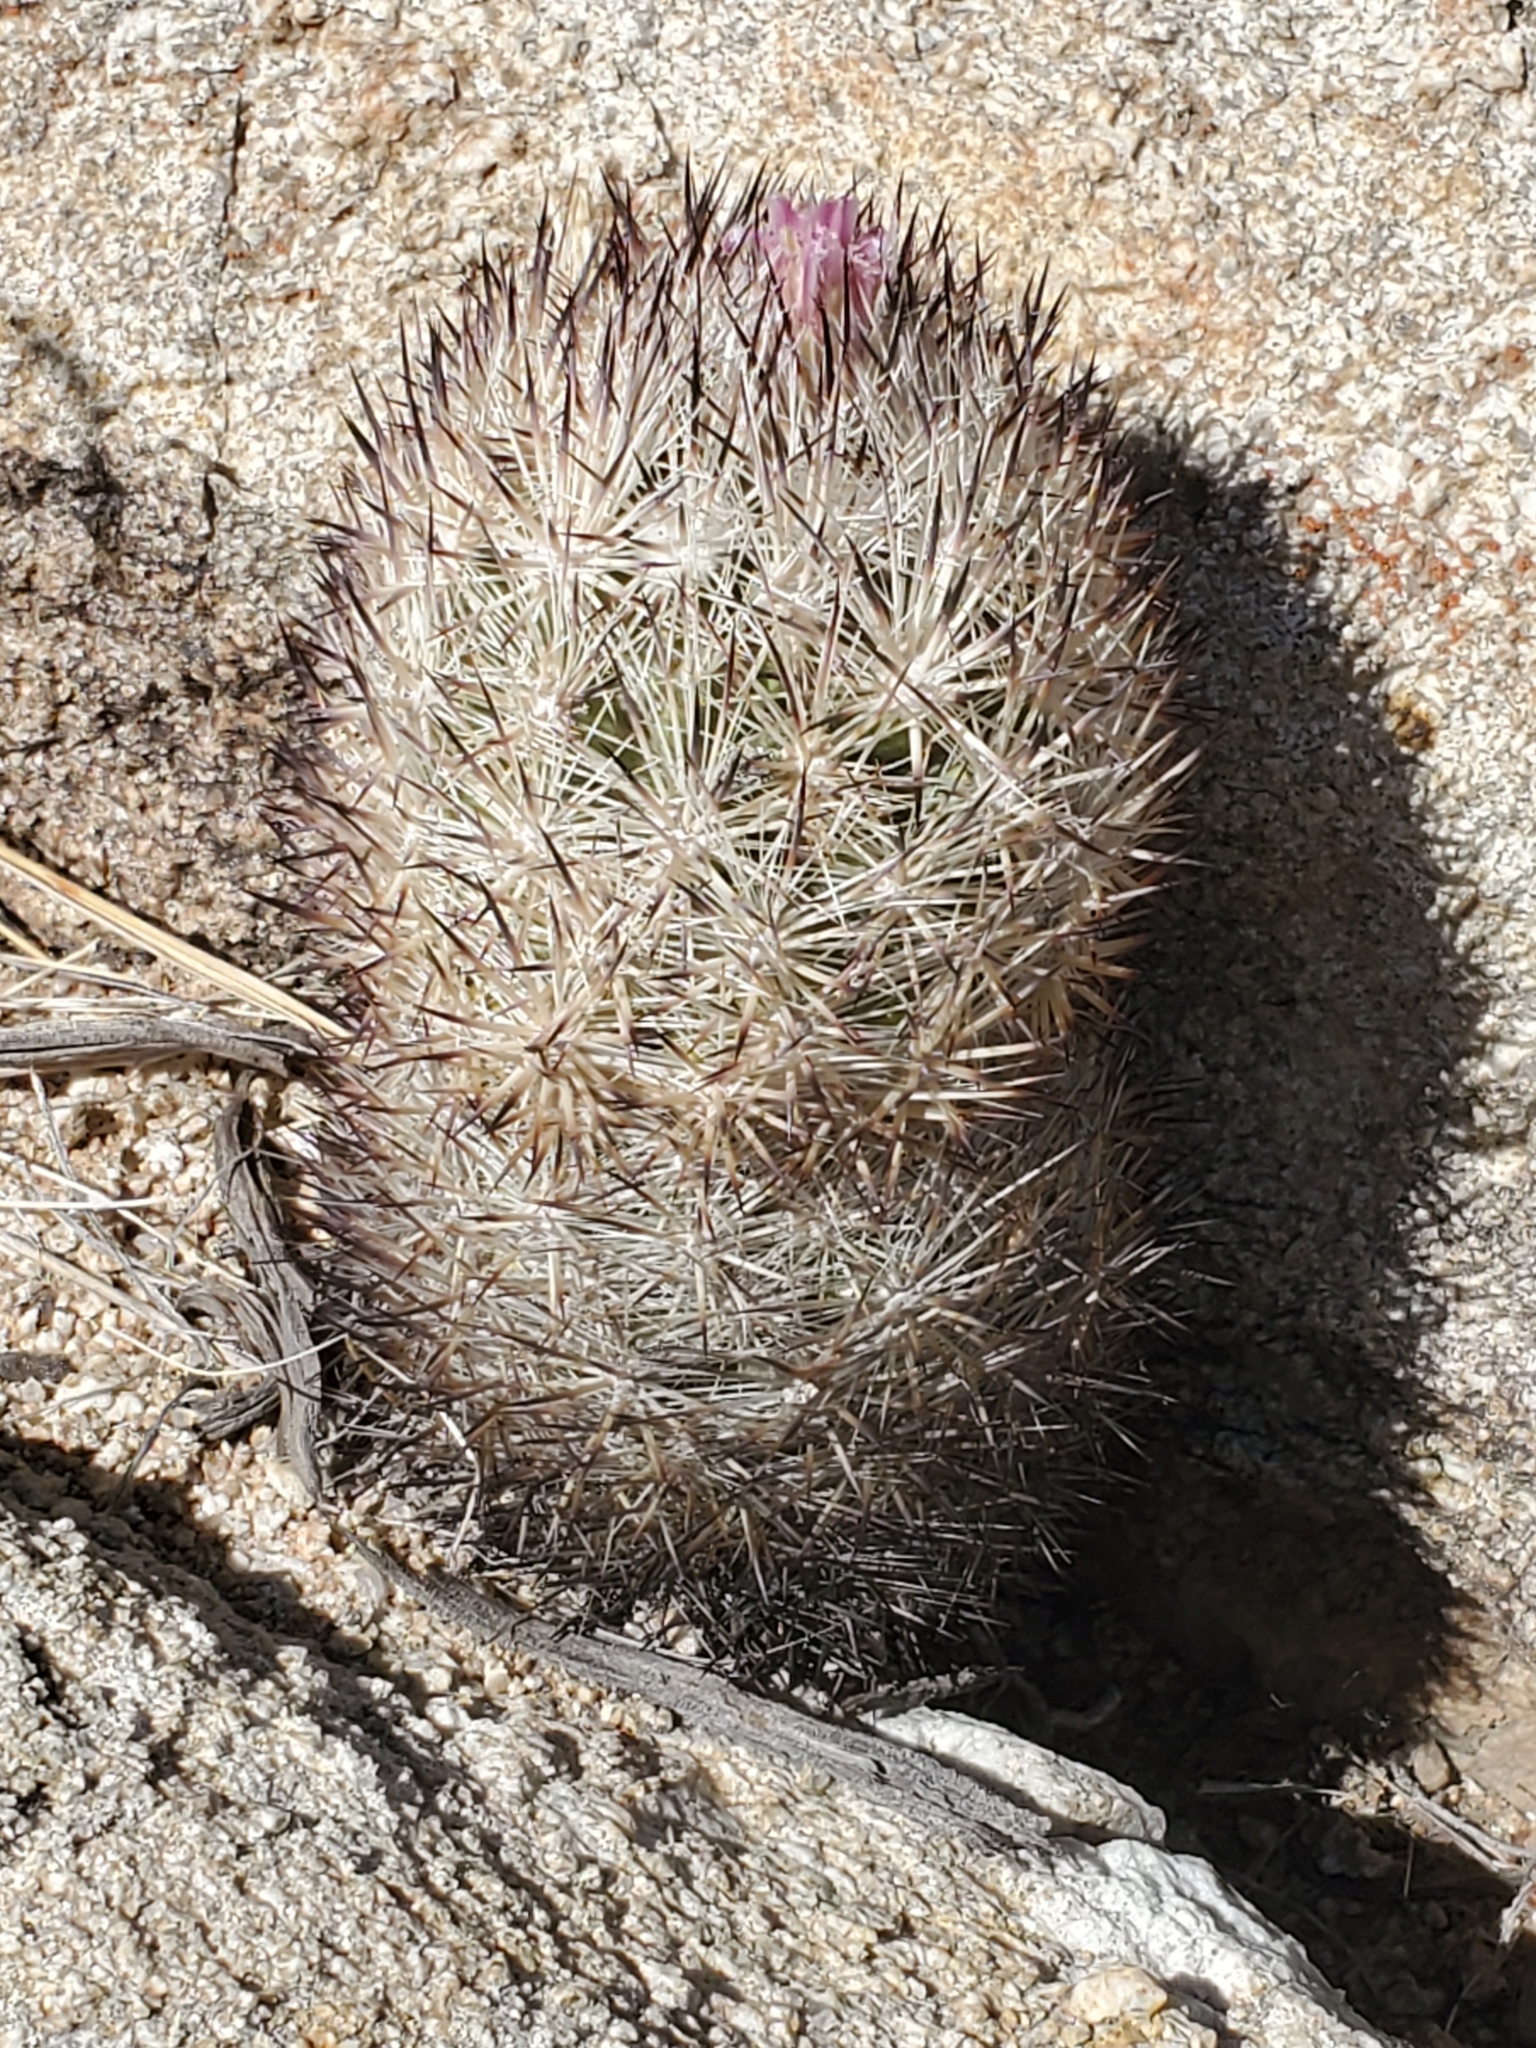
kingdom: Plantae
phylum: Tracheophyta
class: Magnoliopsida
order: Caryophyllales
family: Cactaceae
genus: Pelecyphora
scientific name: Pelecyphora alversonii
